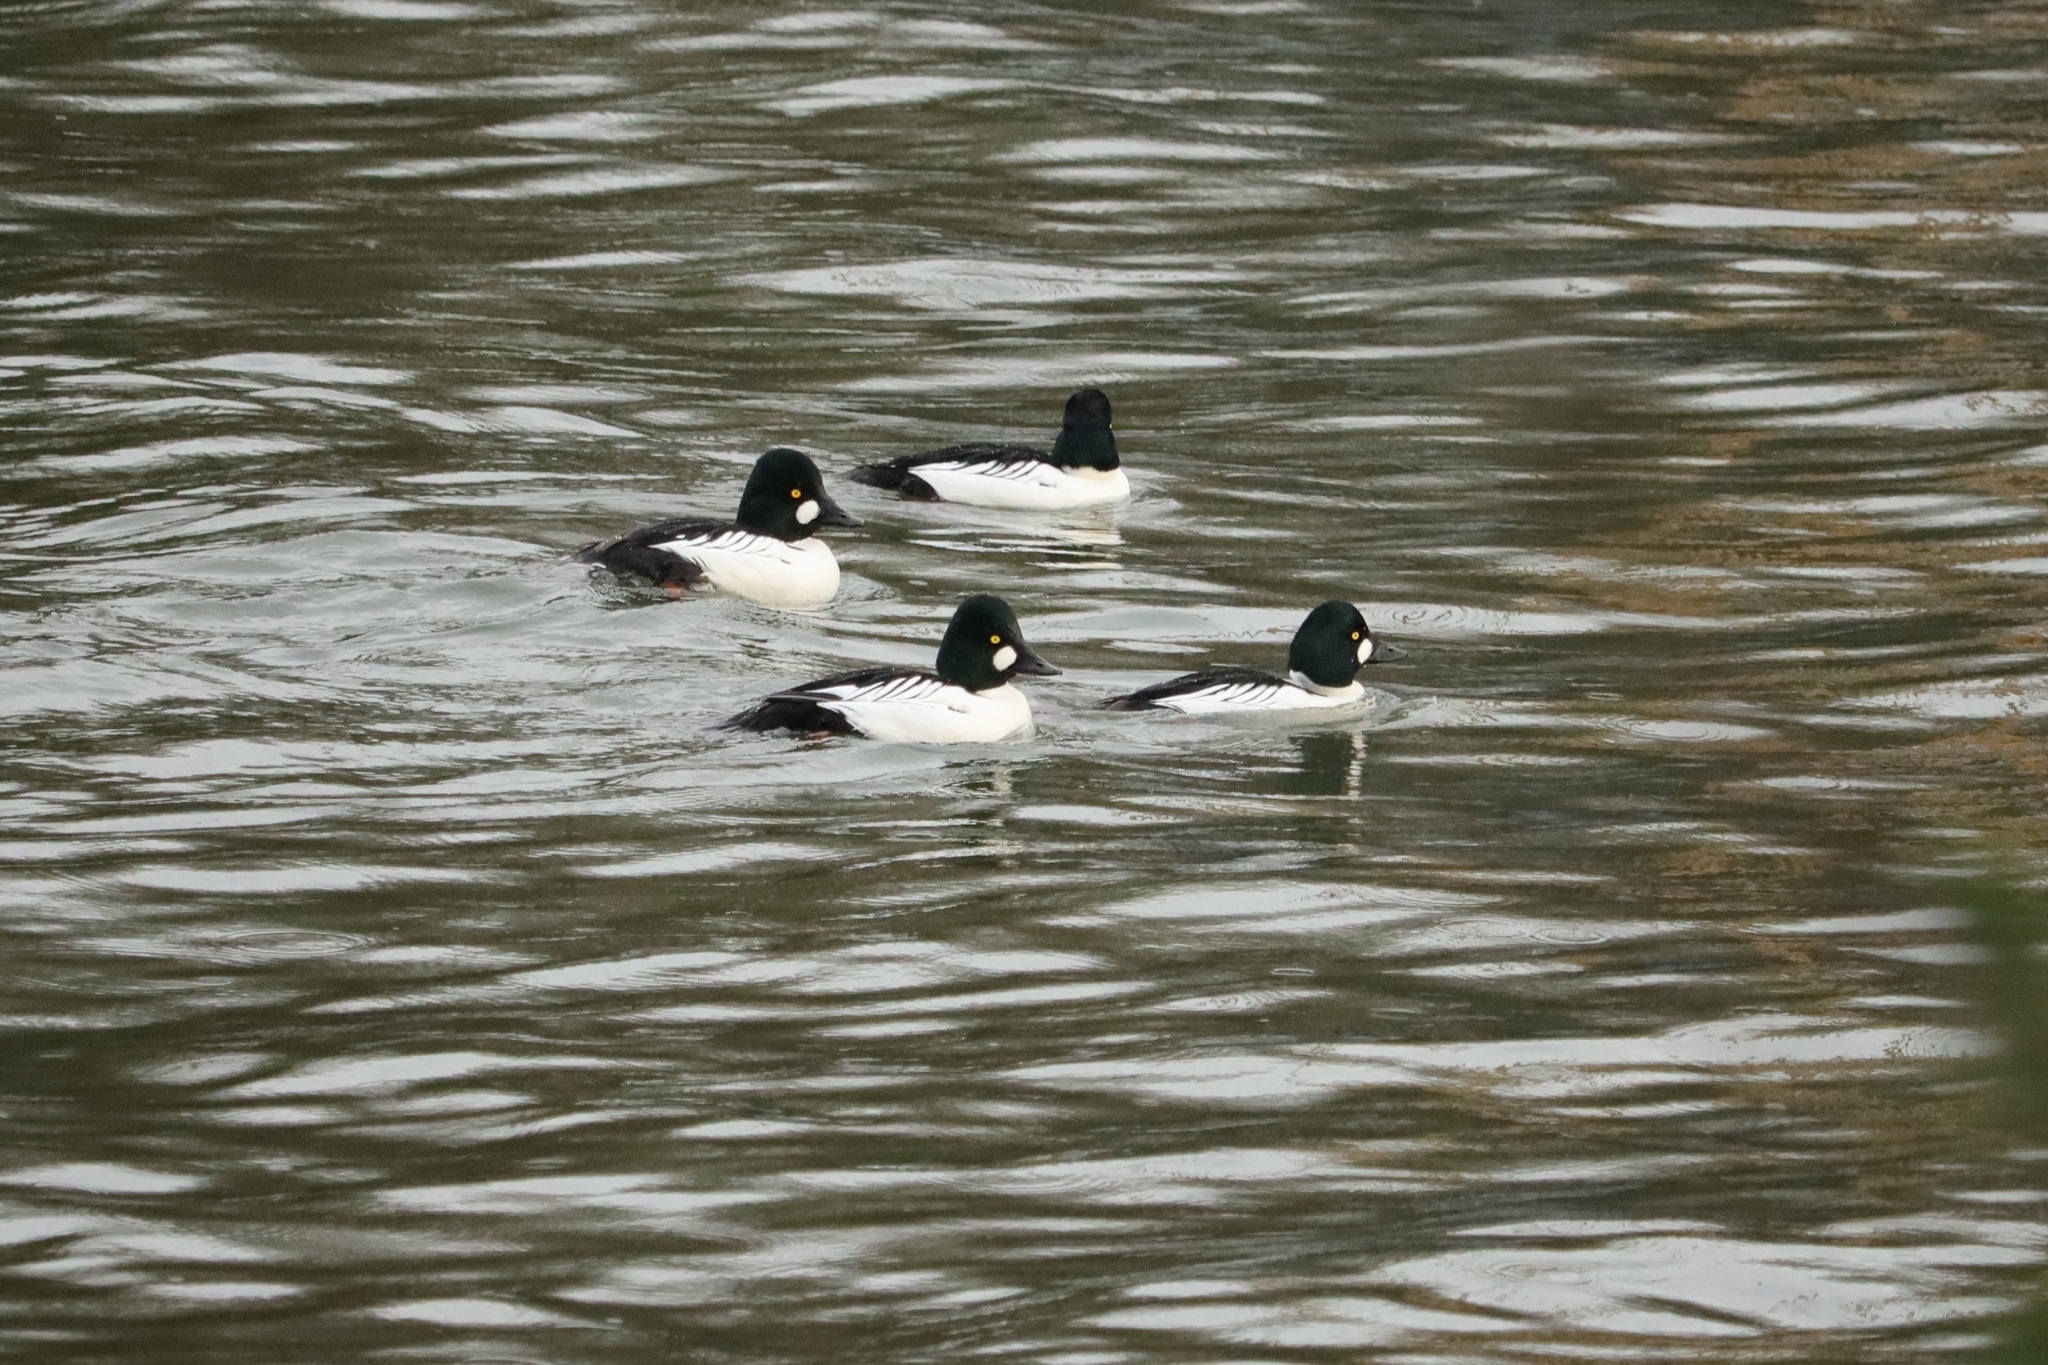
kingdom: Animalia
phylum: Chordata
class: Aves
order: Anseriformes
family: Anatidae
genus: Bucephala
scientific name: Bucephala clangula
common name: Common goldeneye
